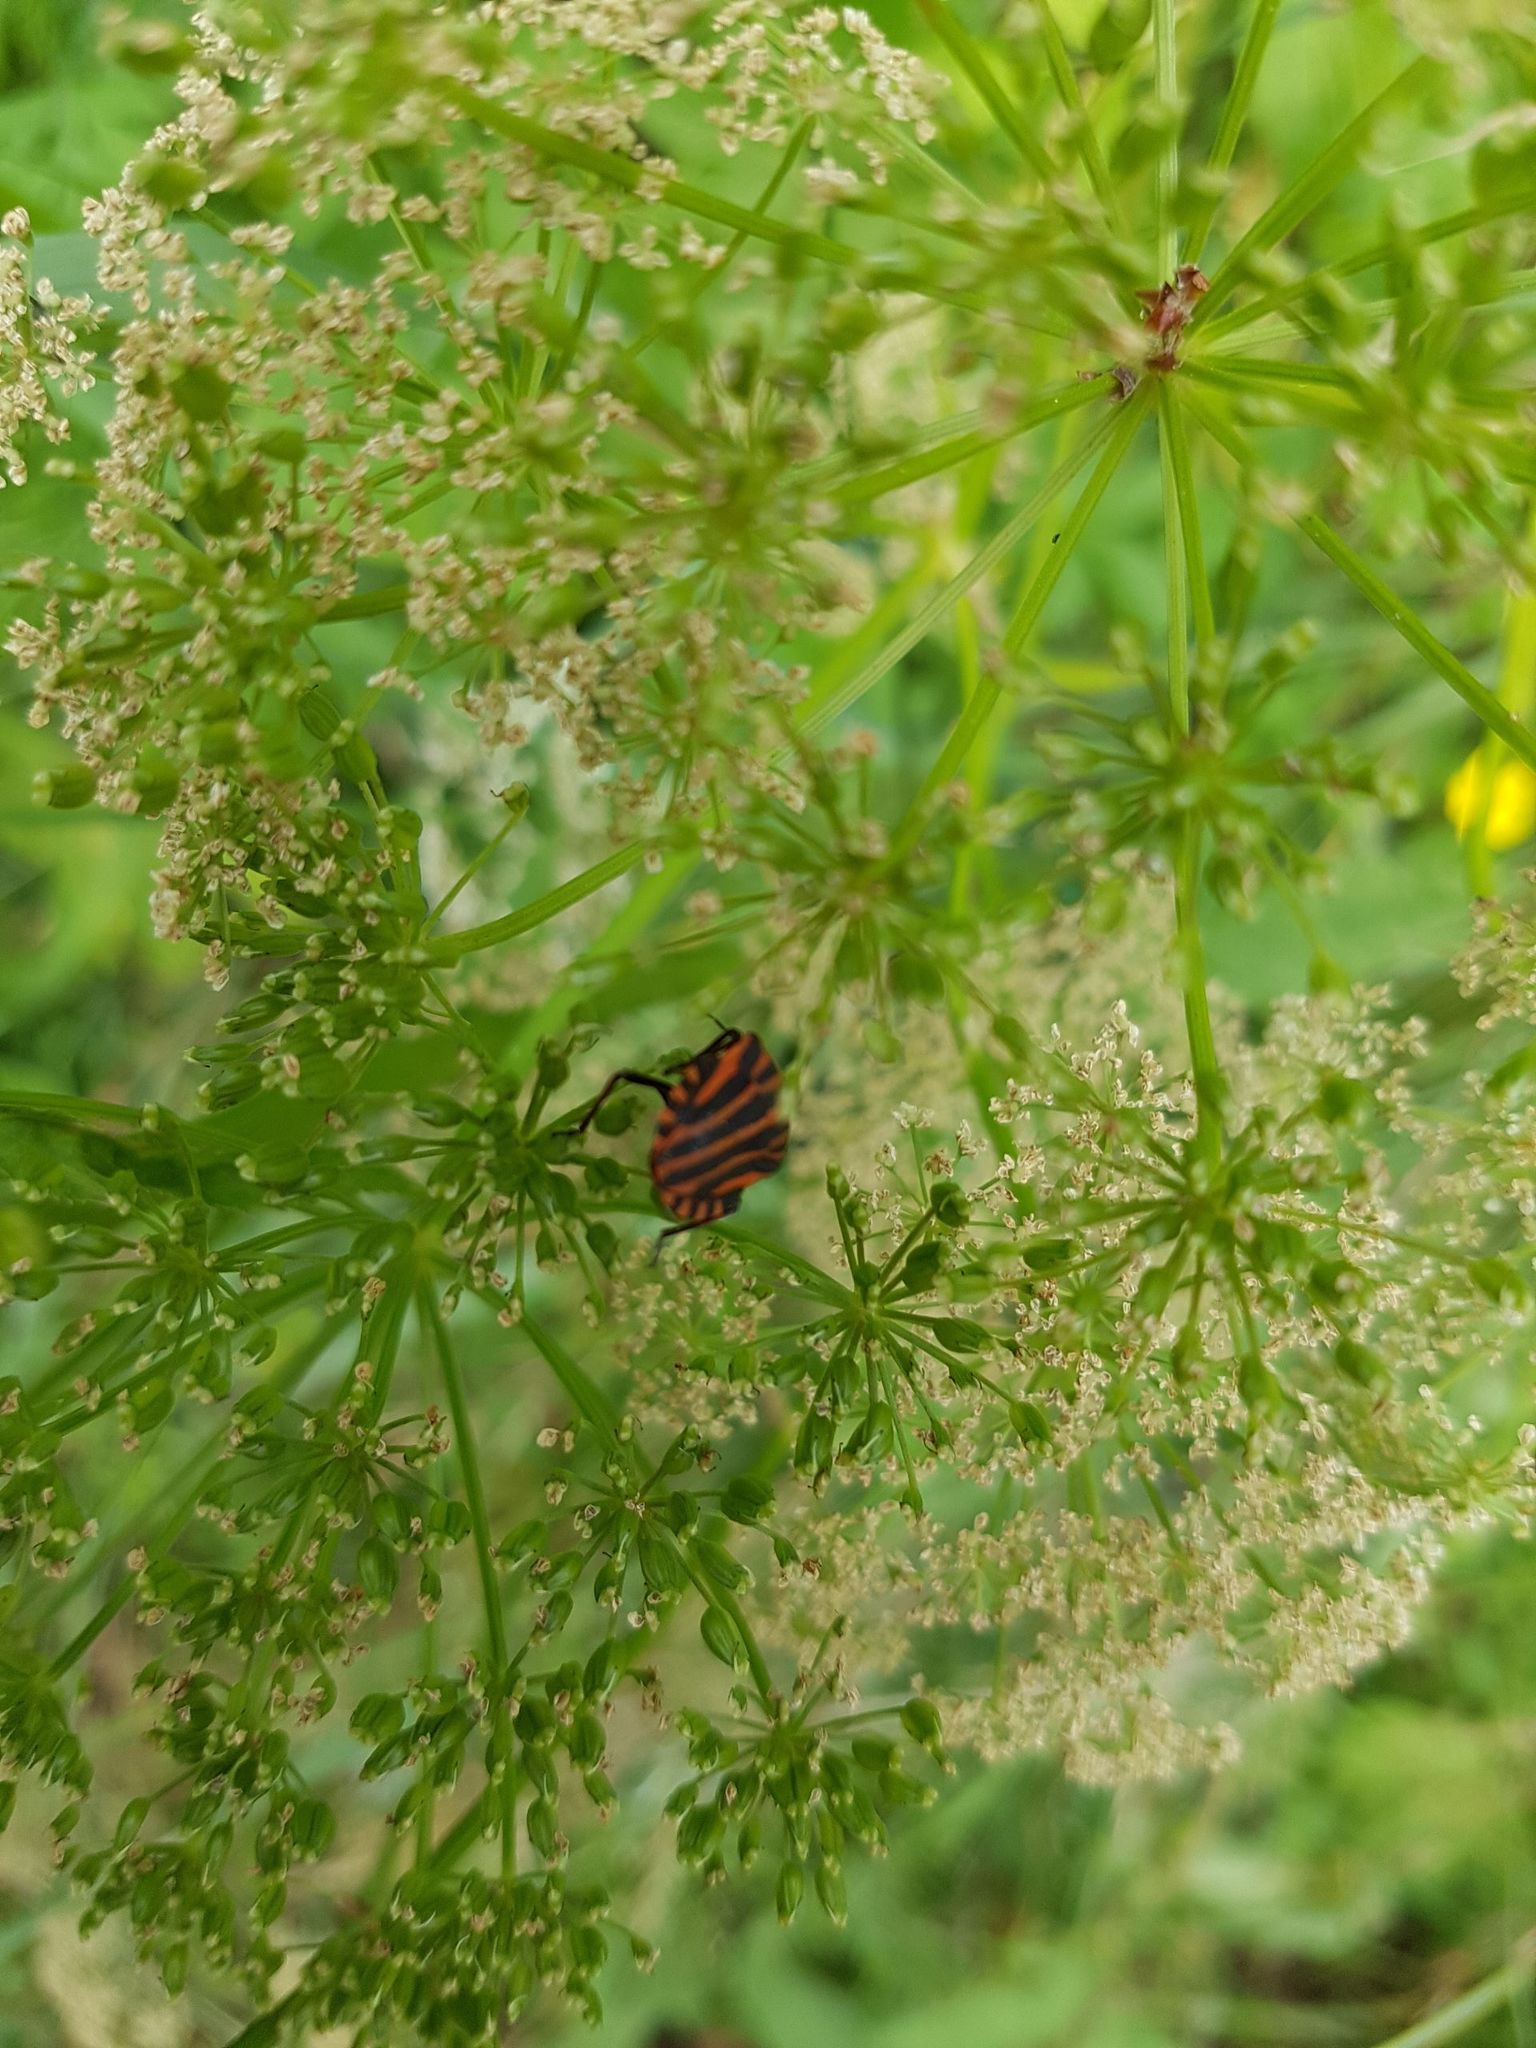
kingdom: Animalia
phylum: Arthropoda
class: Insecta
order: Hemiptera
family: Pentatomidae
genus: Graphosoma
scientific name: Graphosoma italicum
